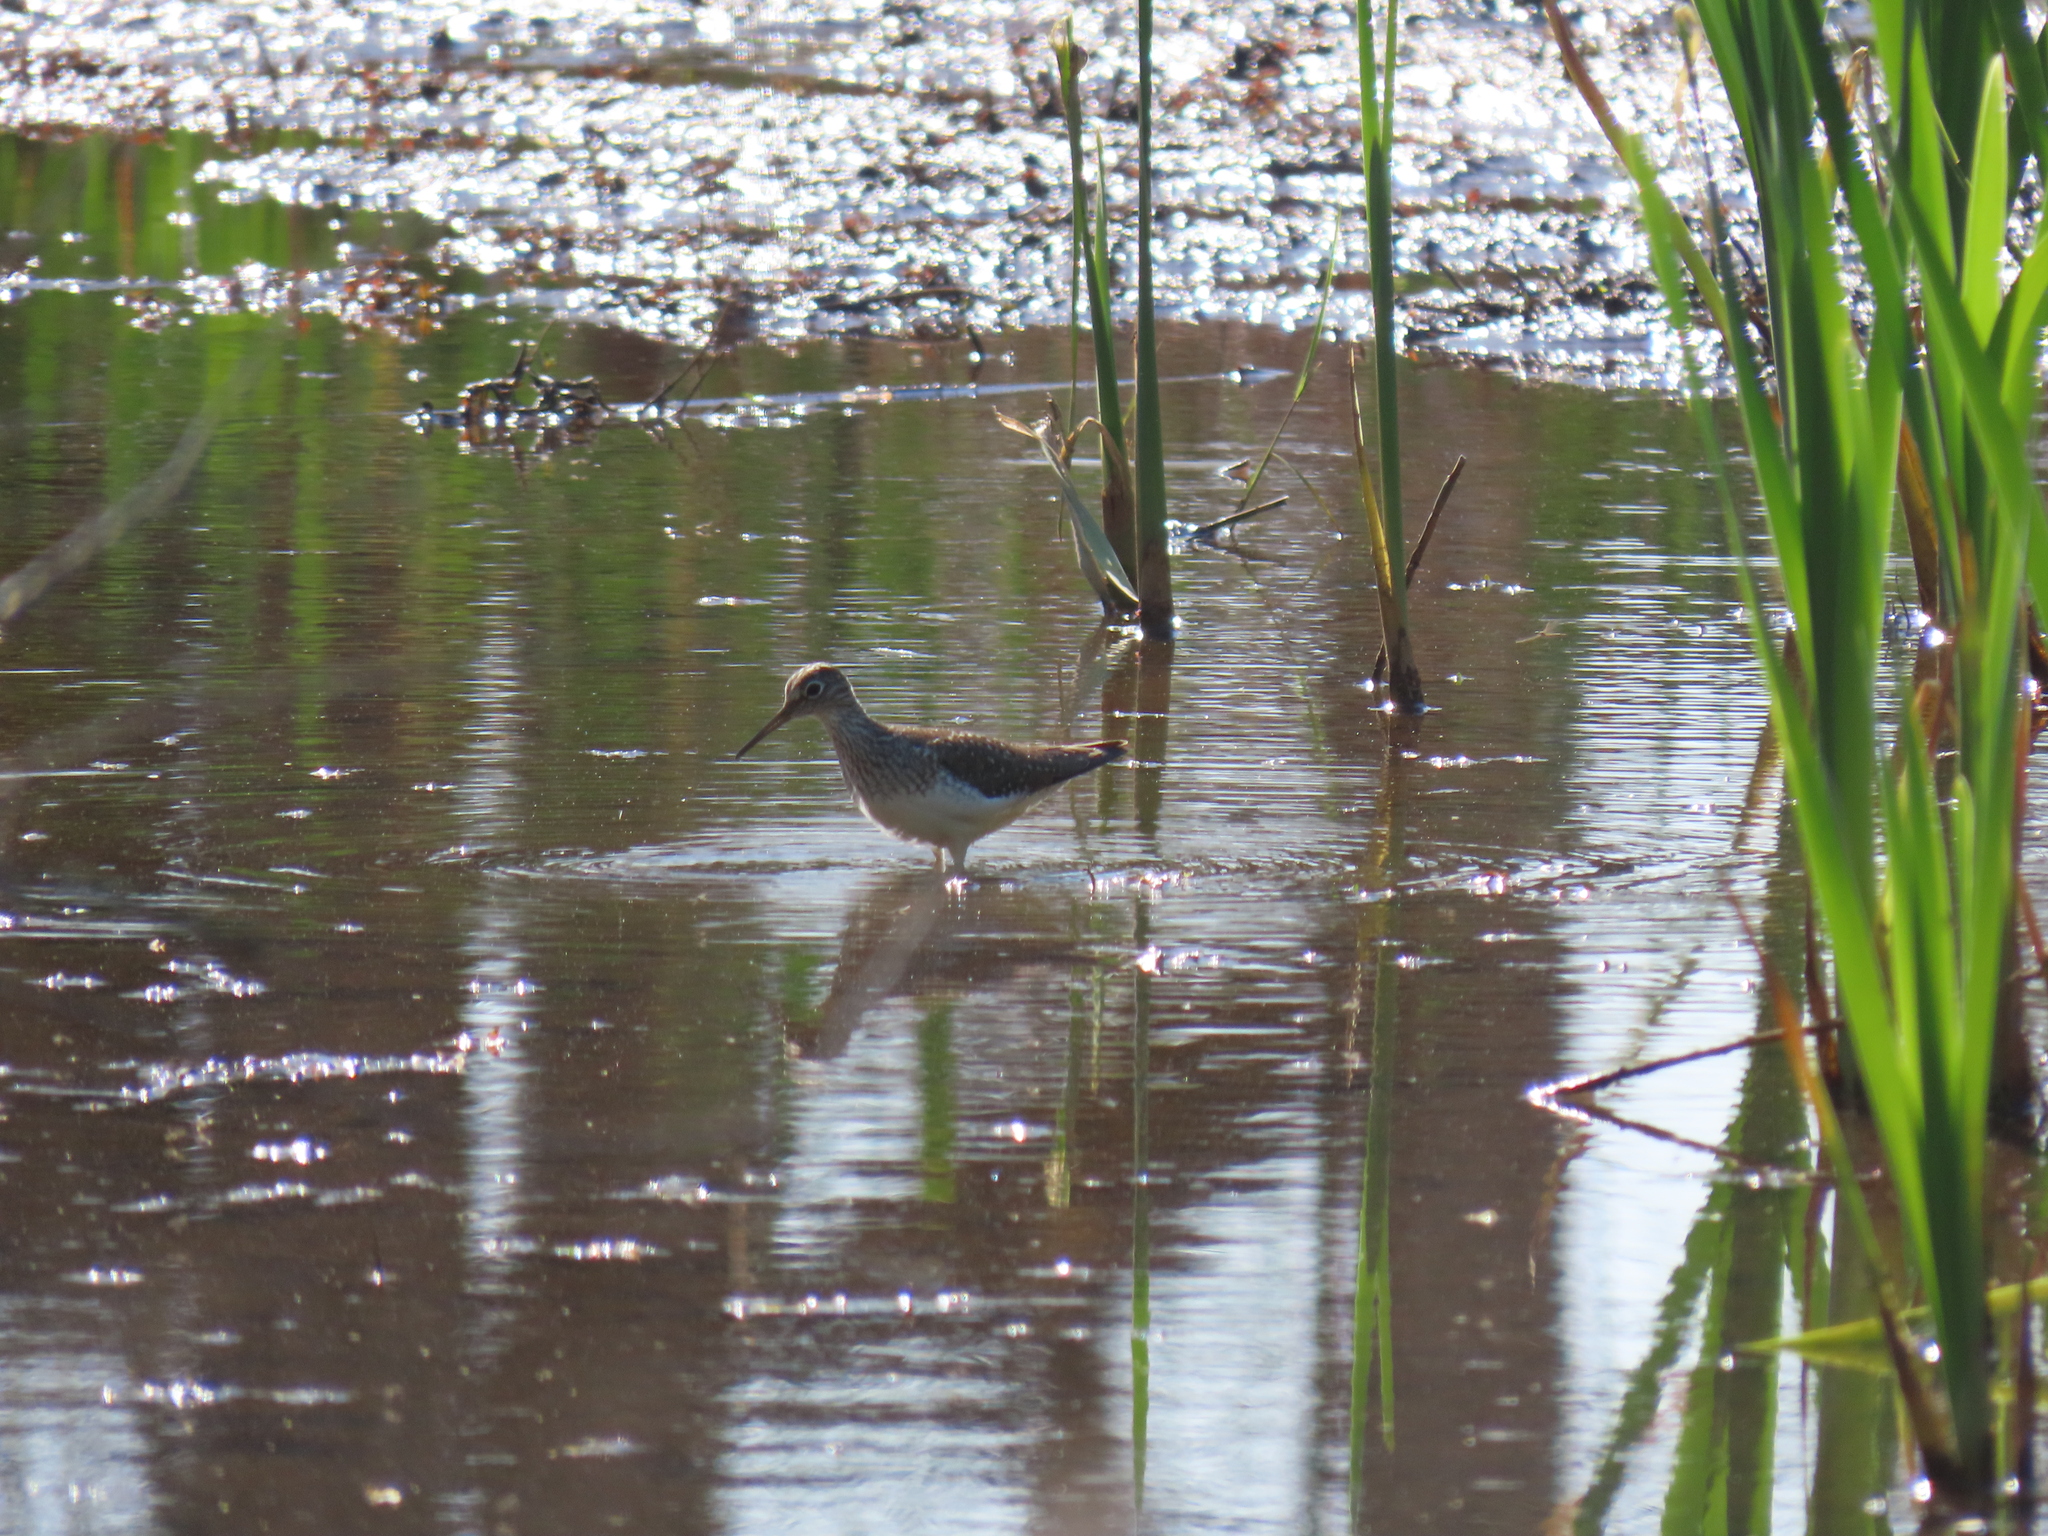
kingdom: Animalia
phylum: Chordata
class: Aves
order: Charadriiformes
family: Scolopacidae
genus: Tringa
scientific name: Tringa solitaria
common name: Solitary sandpiper
